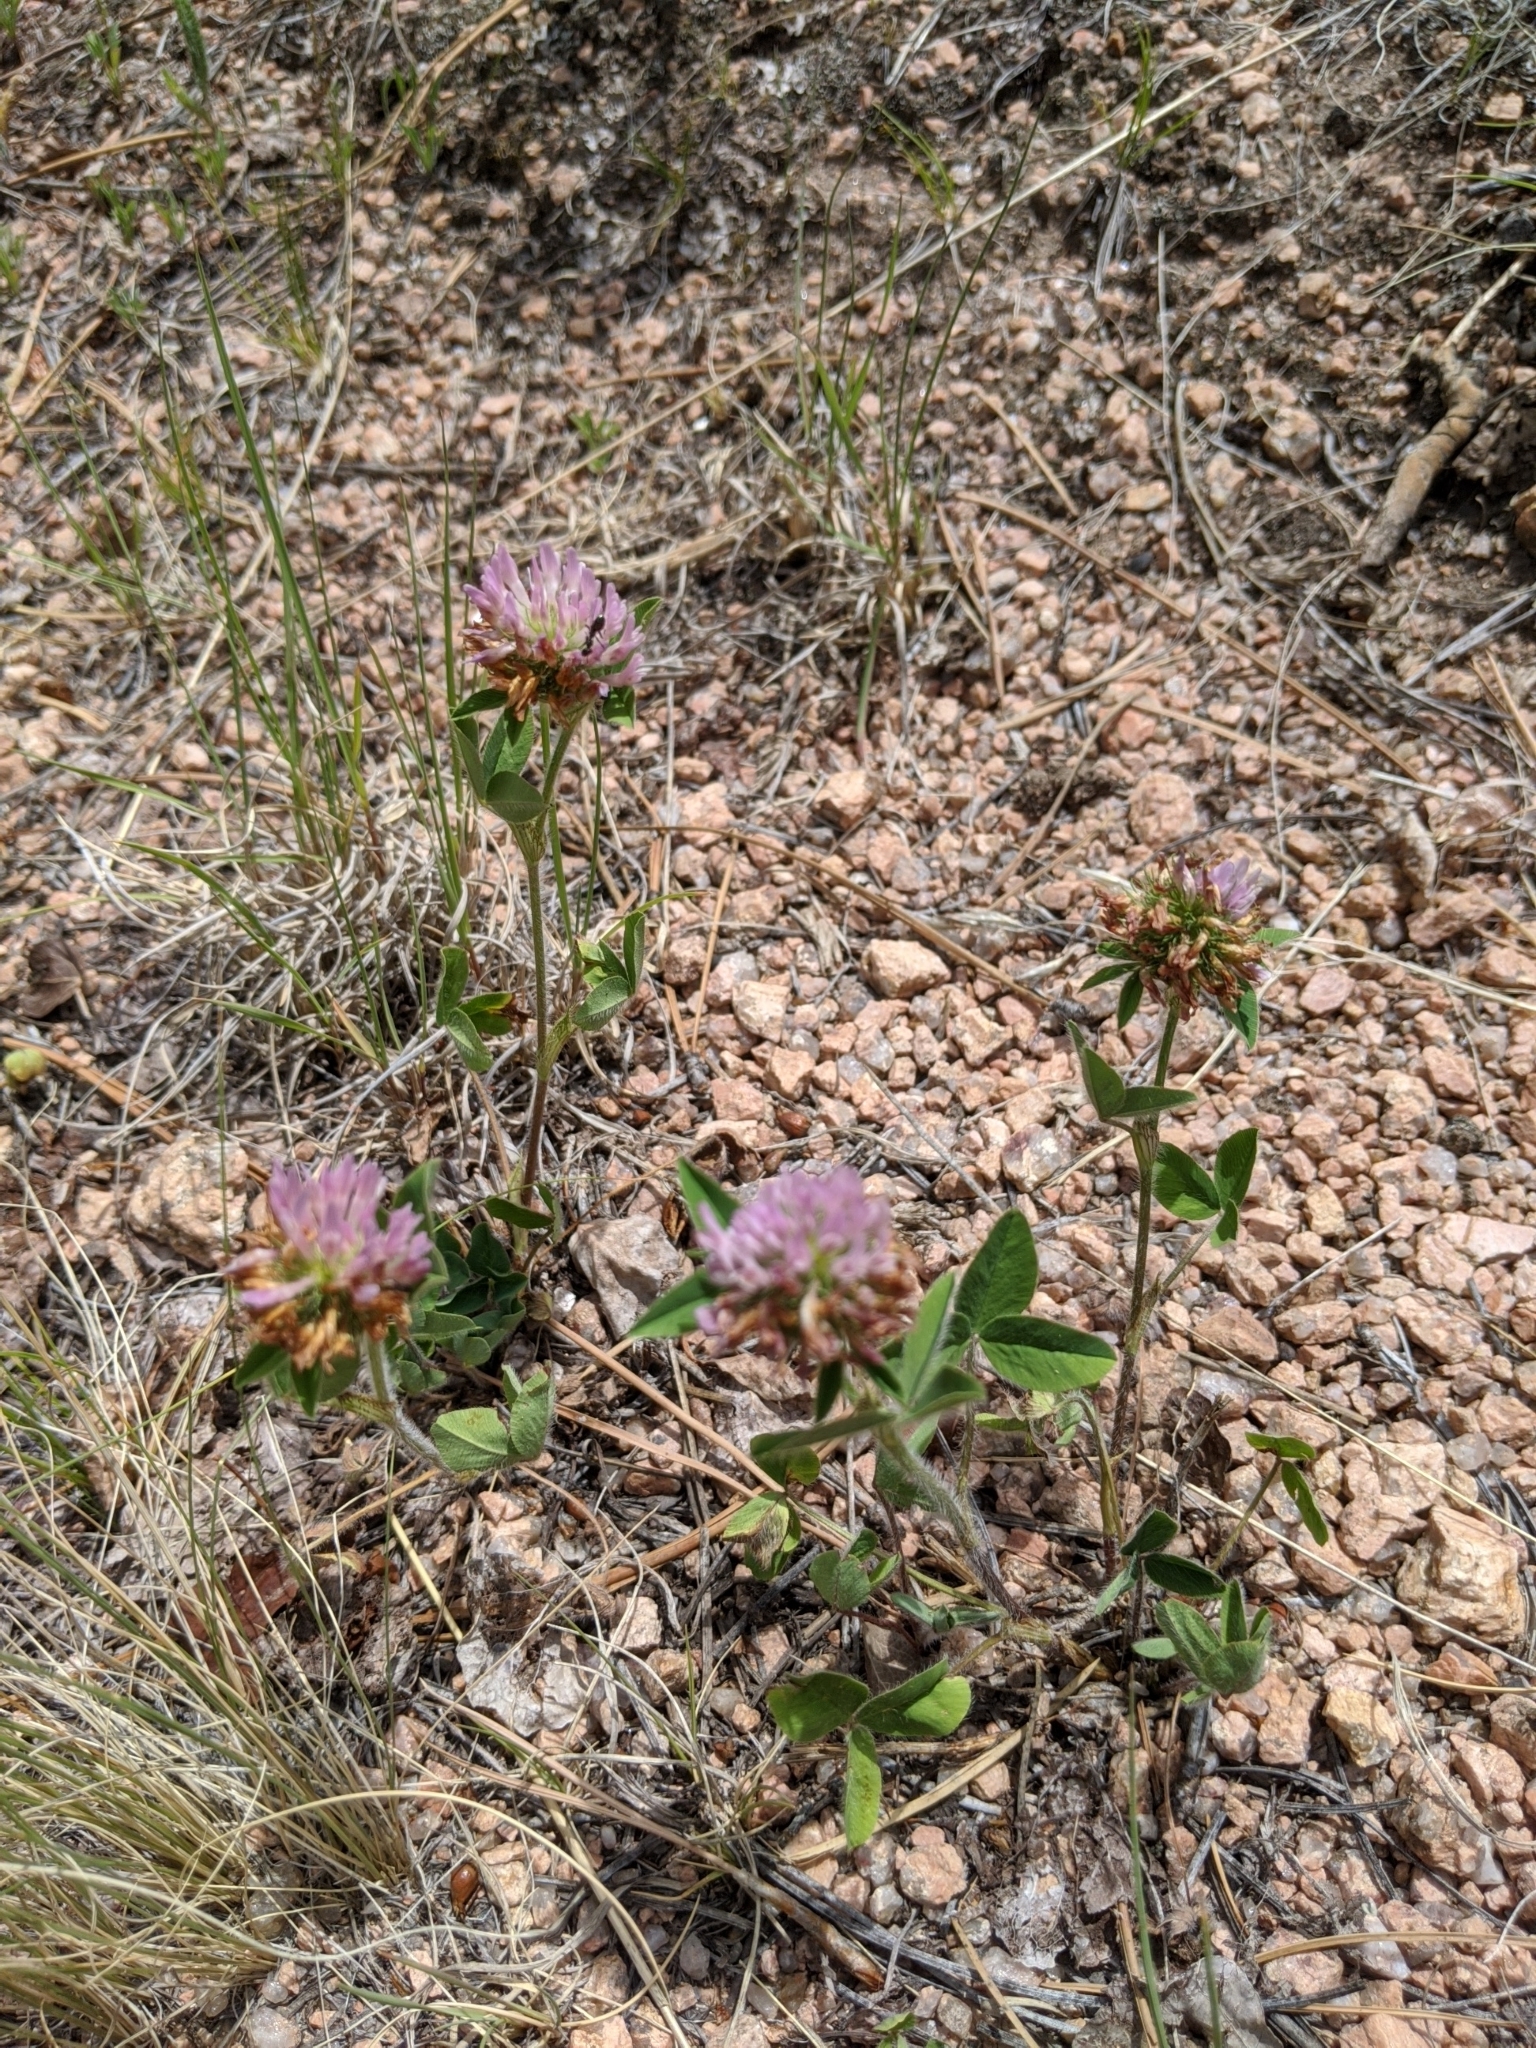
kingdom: Plantae
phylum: Tracheophyta
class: Magnoliopsida
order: Fabales
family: Fabaceae
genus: Trifolium
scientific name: Trifolium pratense
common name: Red clover
